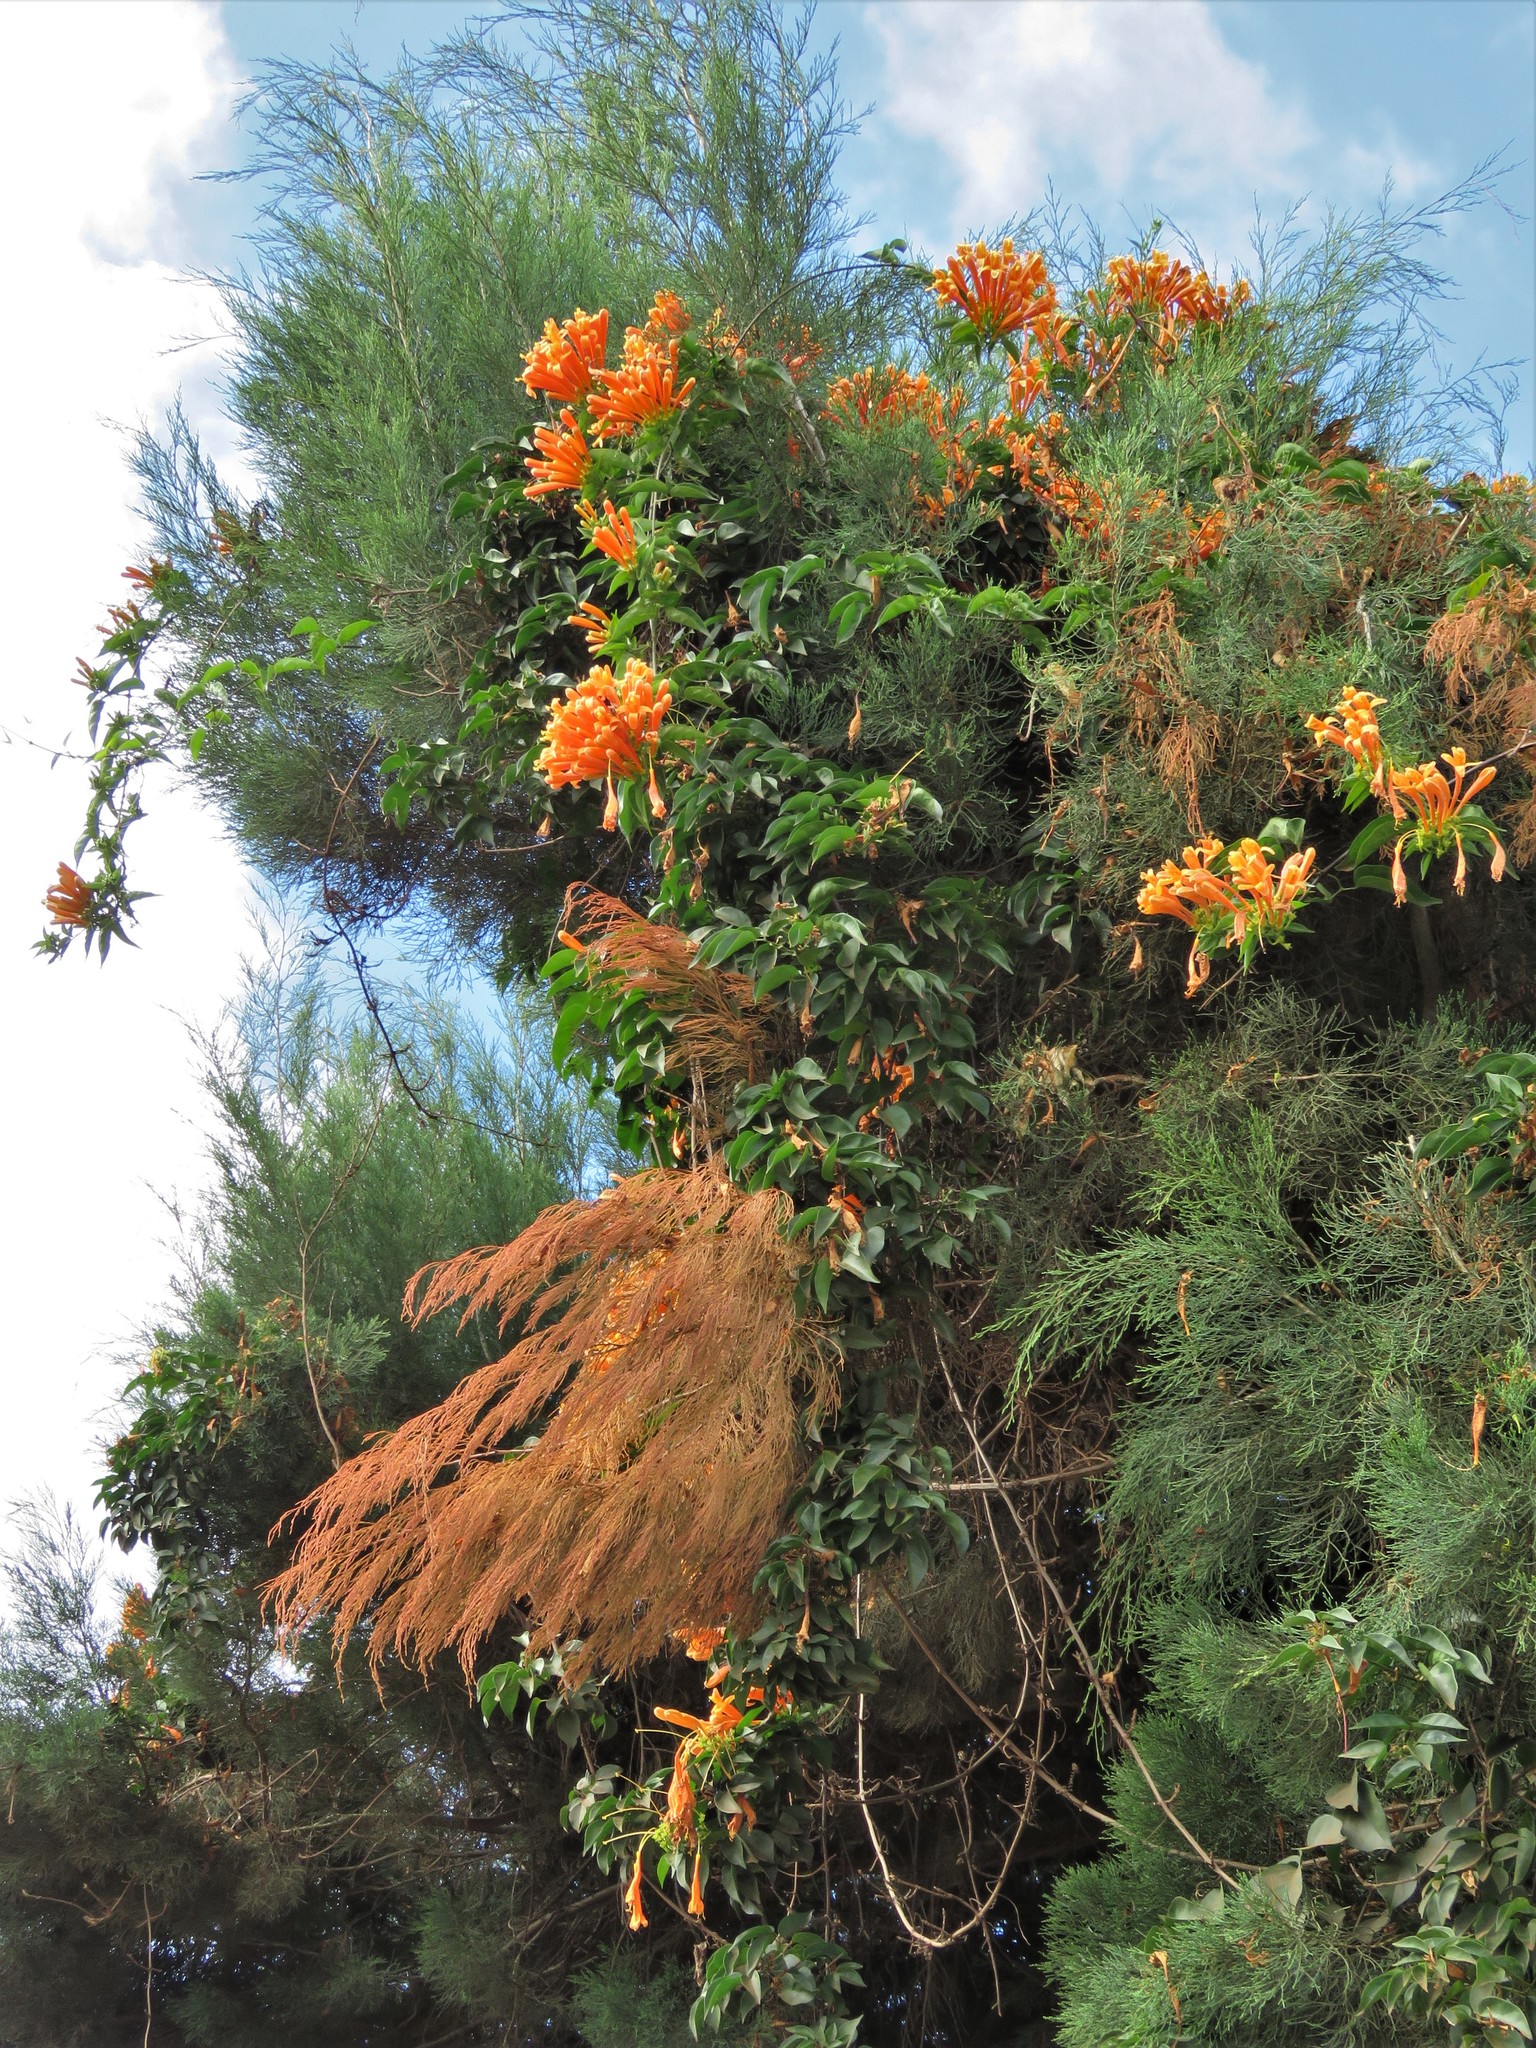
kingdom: Plantae
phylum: Tracheophyta
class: Magnoliopsida
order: Lamiales
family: Bignoniaceae
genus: Pyrostegia
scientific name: Pyrostegia venusta
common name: Flamevine
